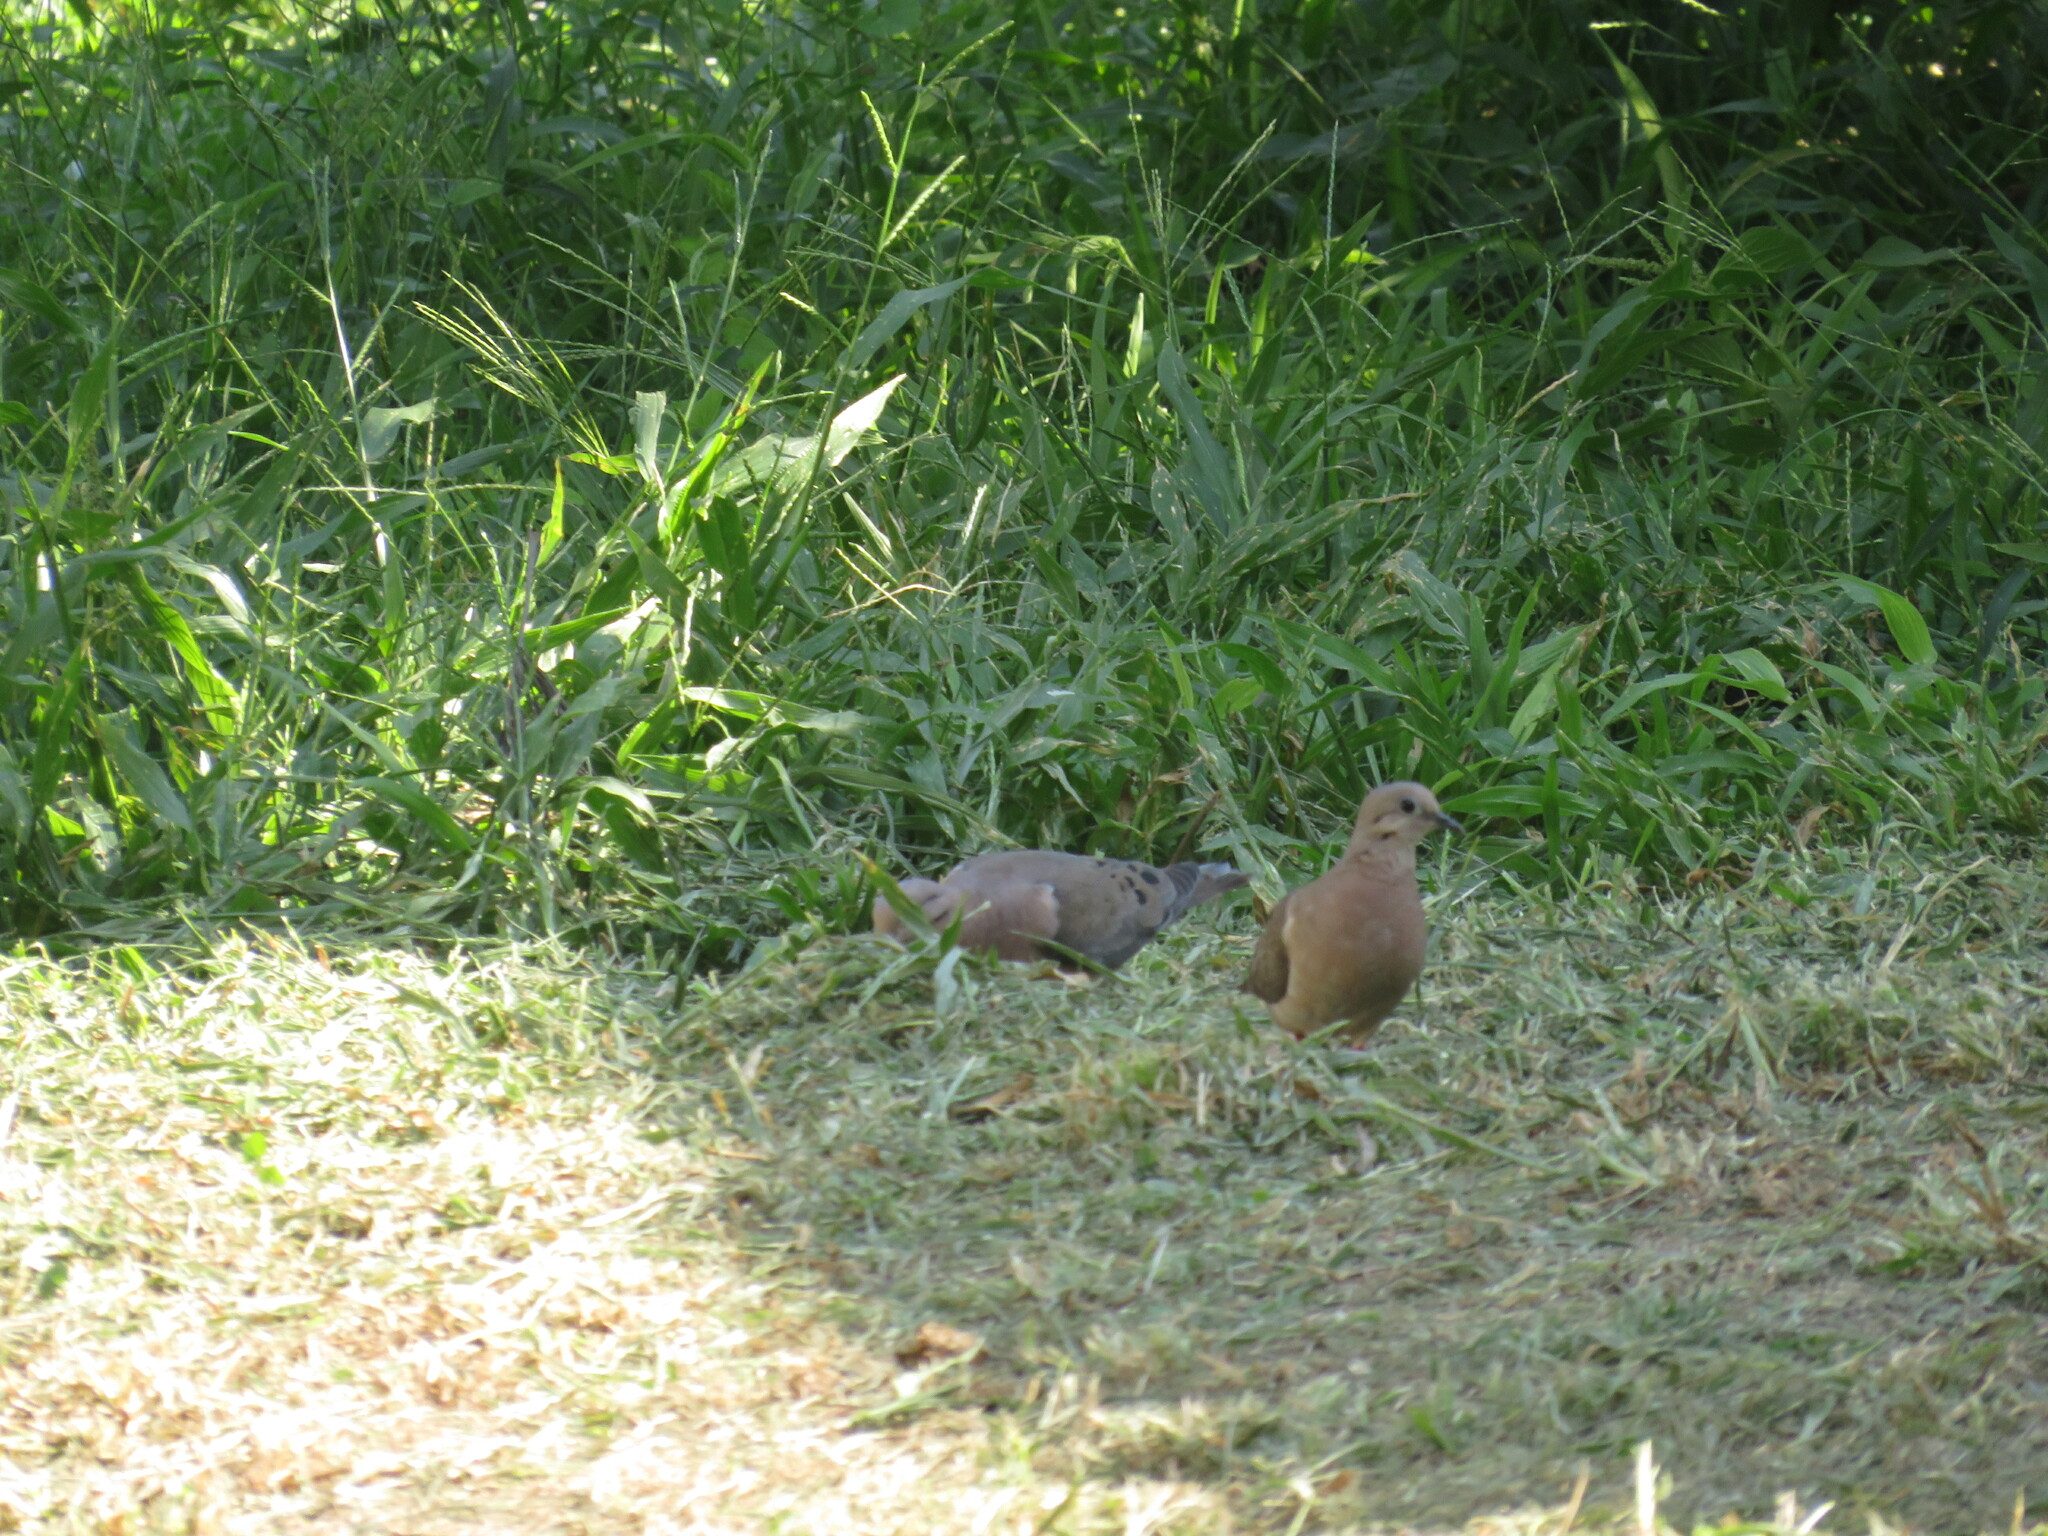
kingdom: Animalia
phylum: Chordata
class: Aves
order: Columbiformes
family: Columbidae
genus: Zenaida
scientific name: Zenaida auriculata
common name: Eared dove
